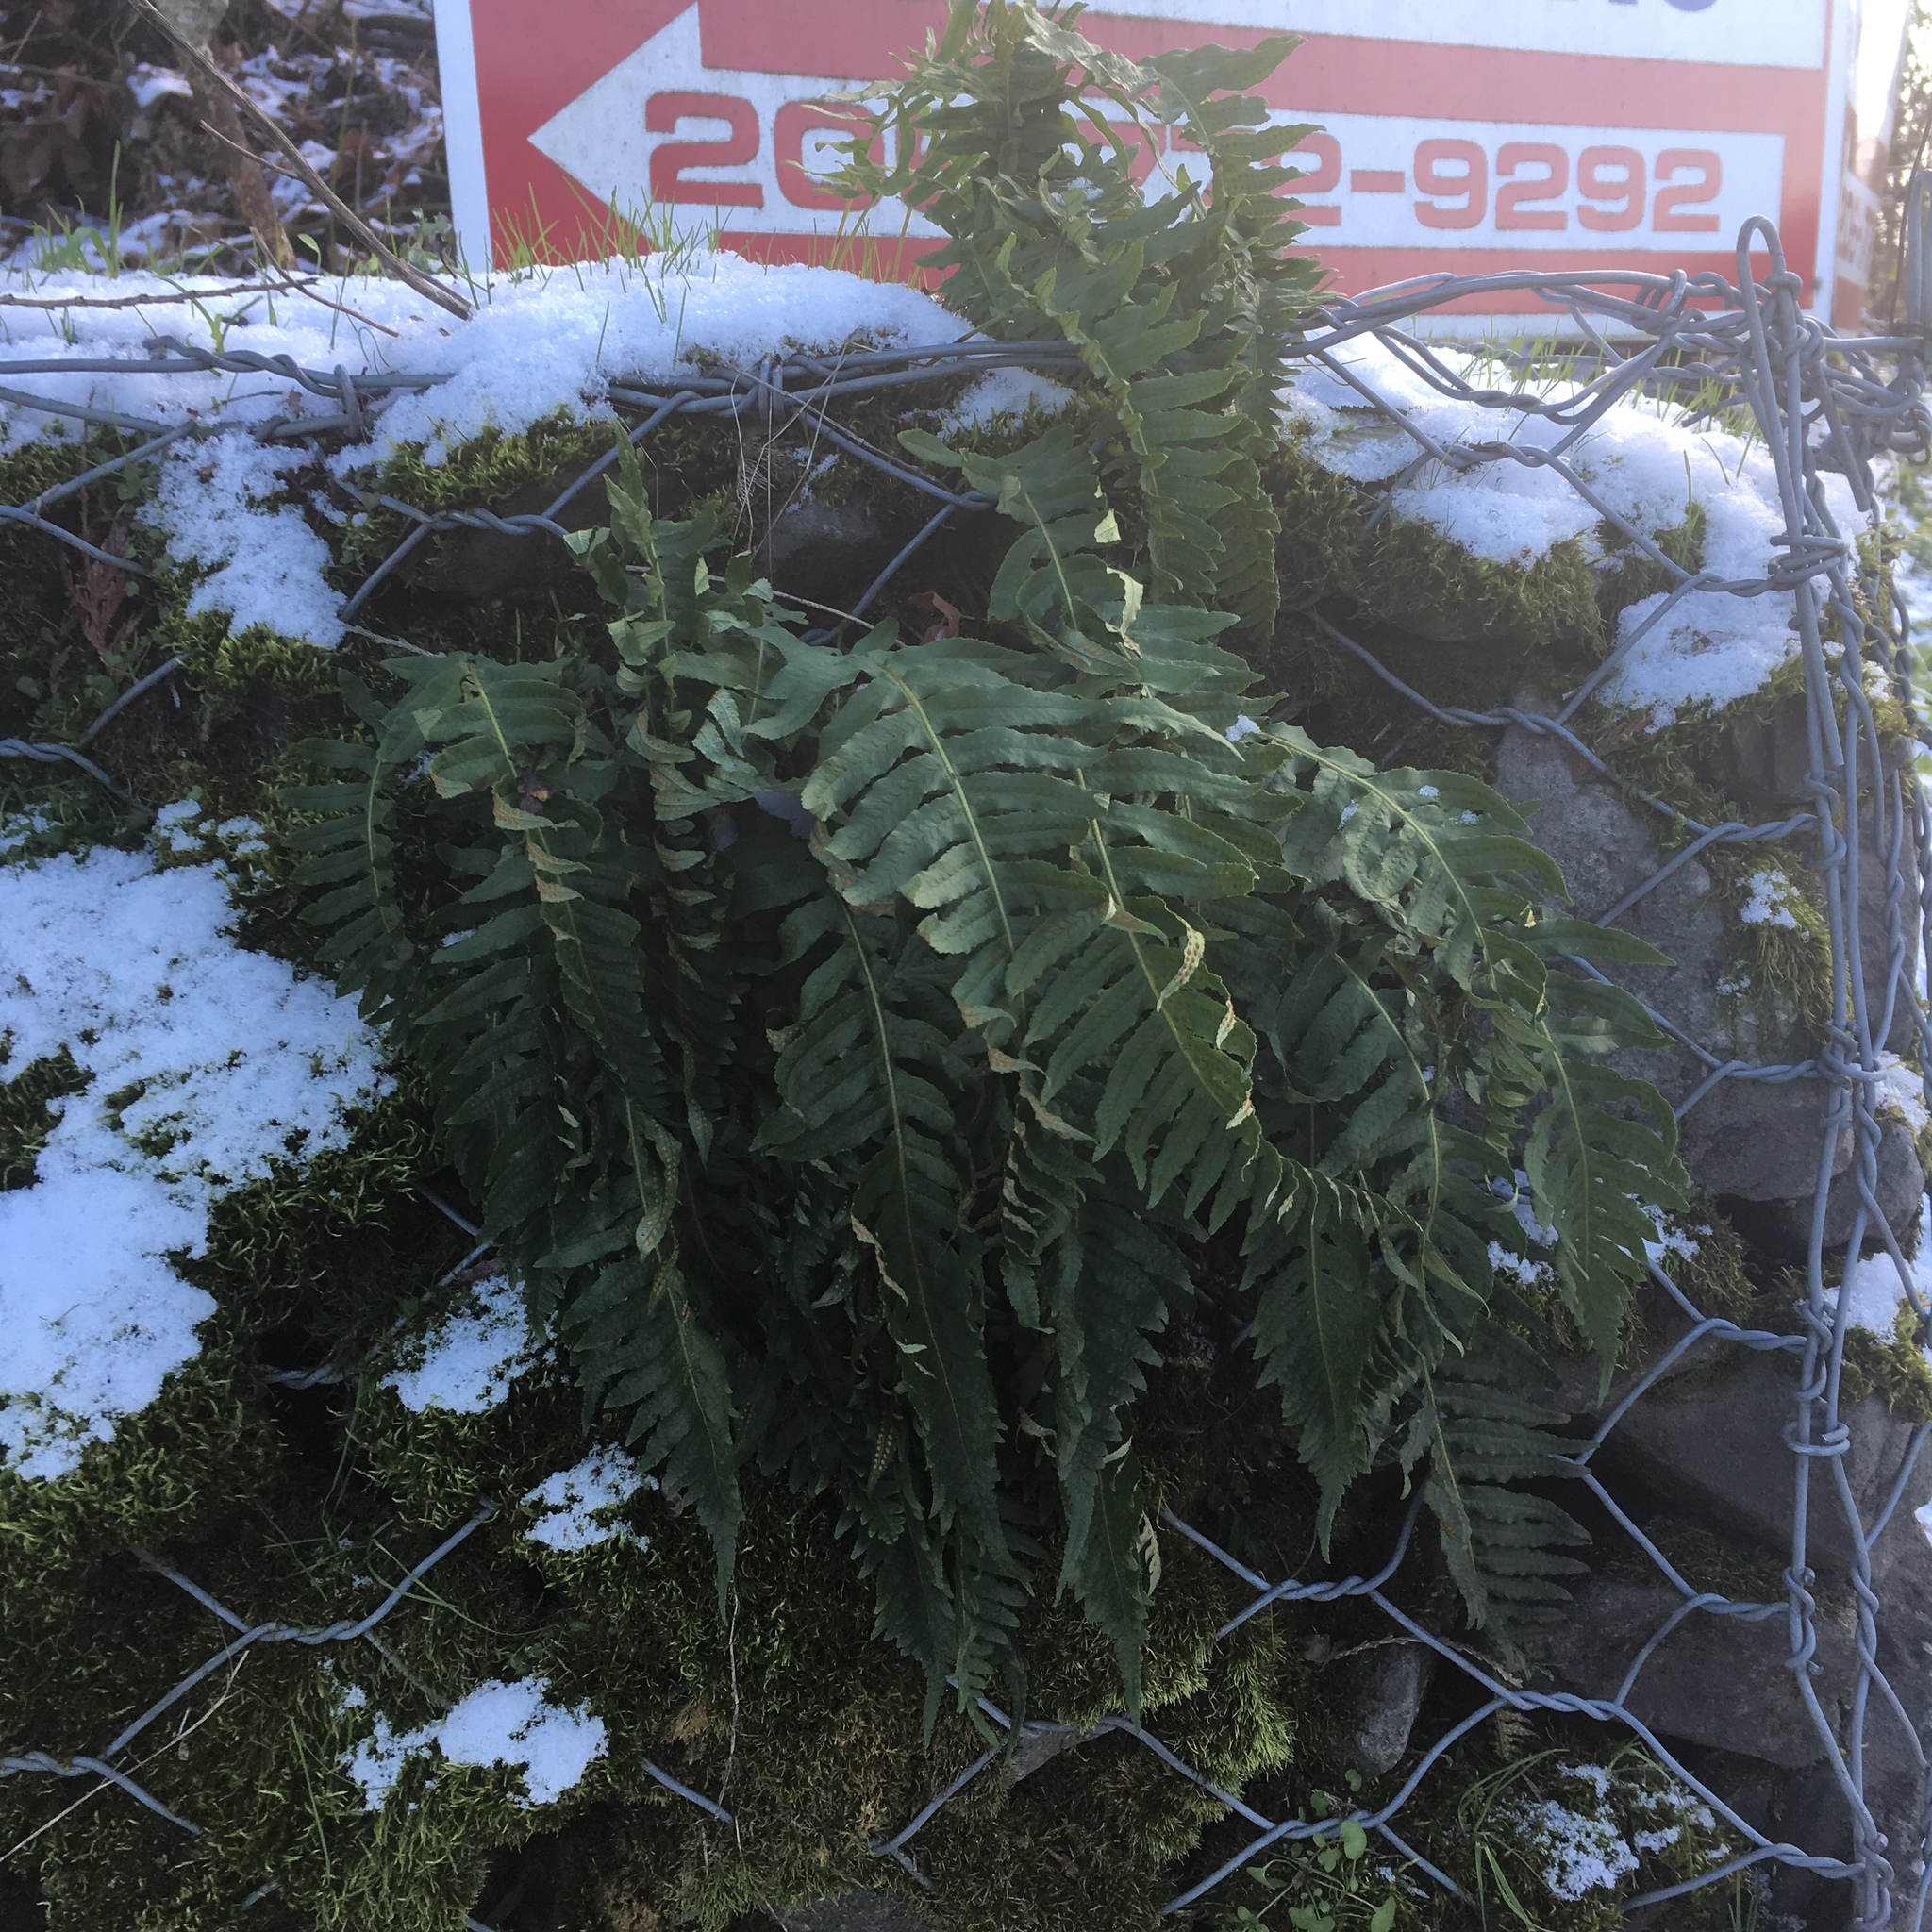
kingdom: Plantae
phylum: Tracheophyta
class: Polypodiopsida
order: Polypodiales
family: Polypodiaceae
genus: Polypodium
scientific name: Polypodium glycyrrhiza
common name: Licorice fern
